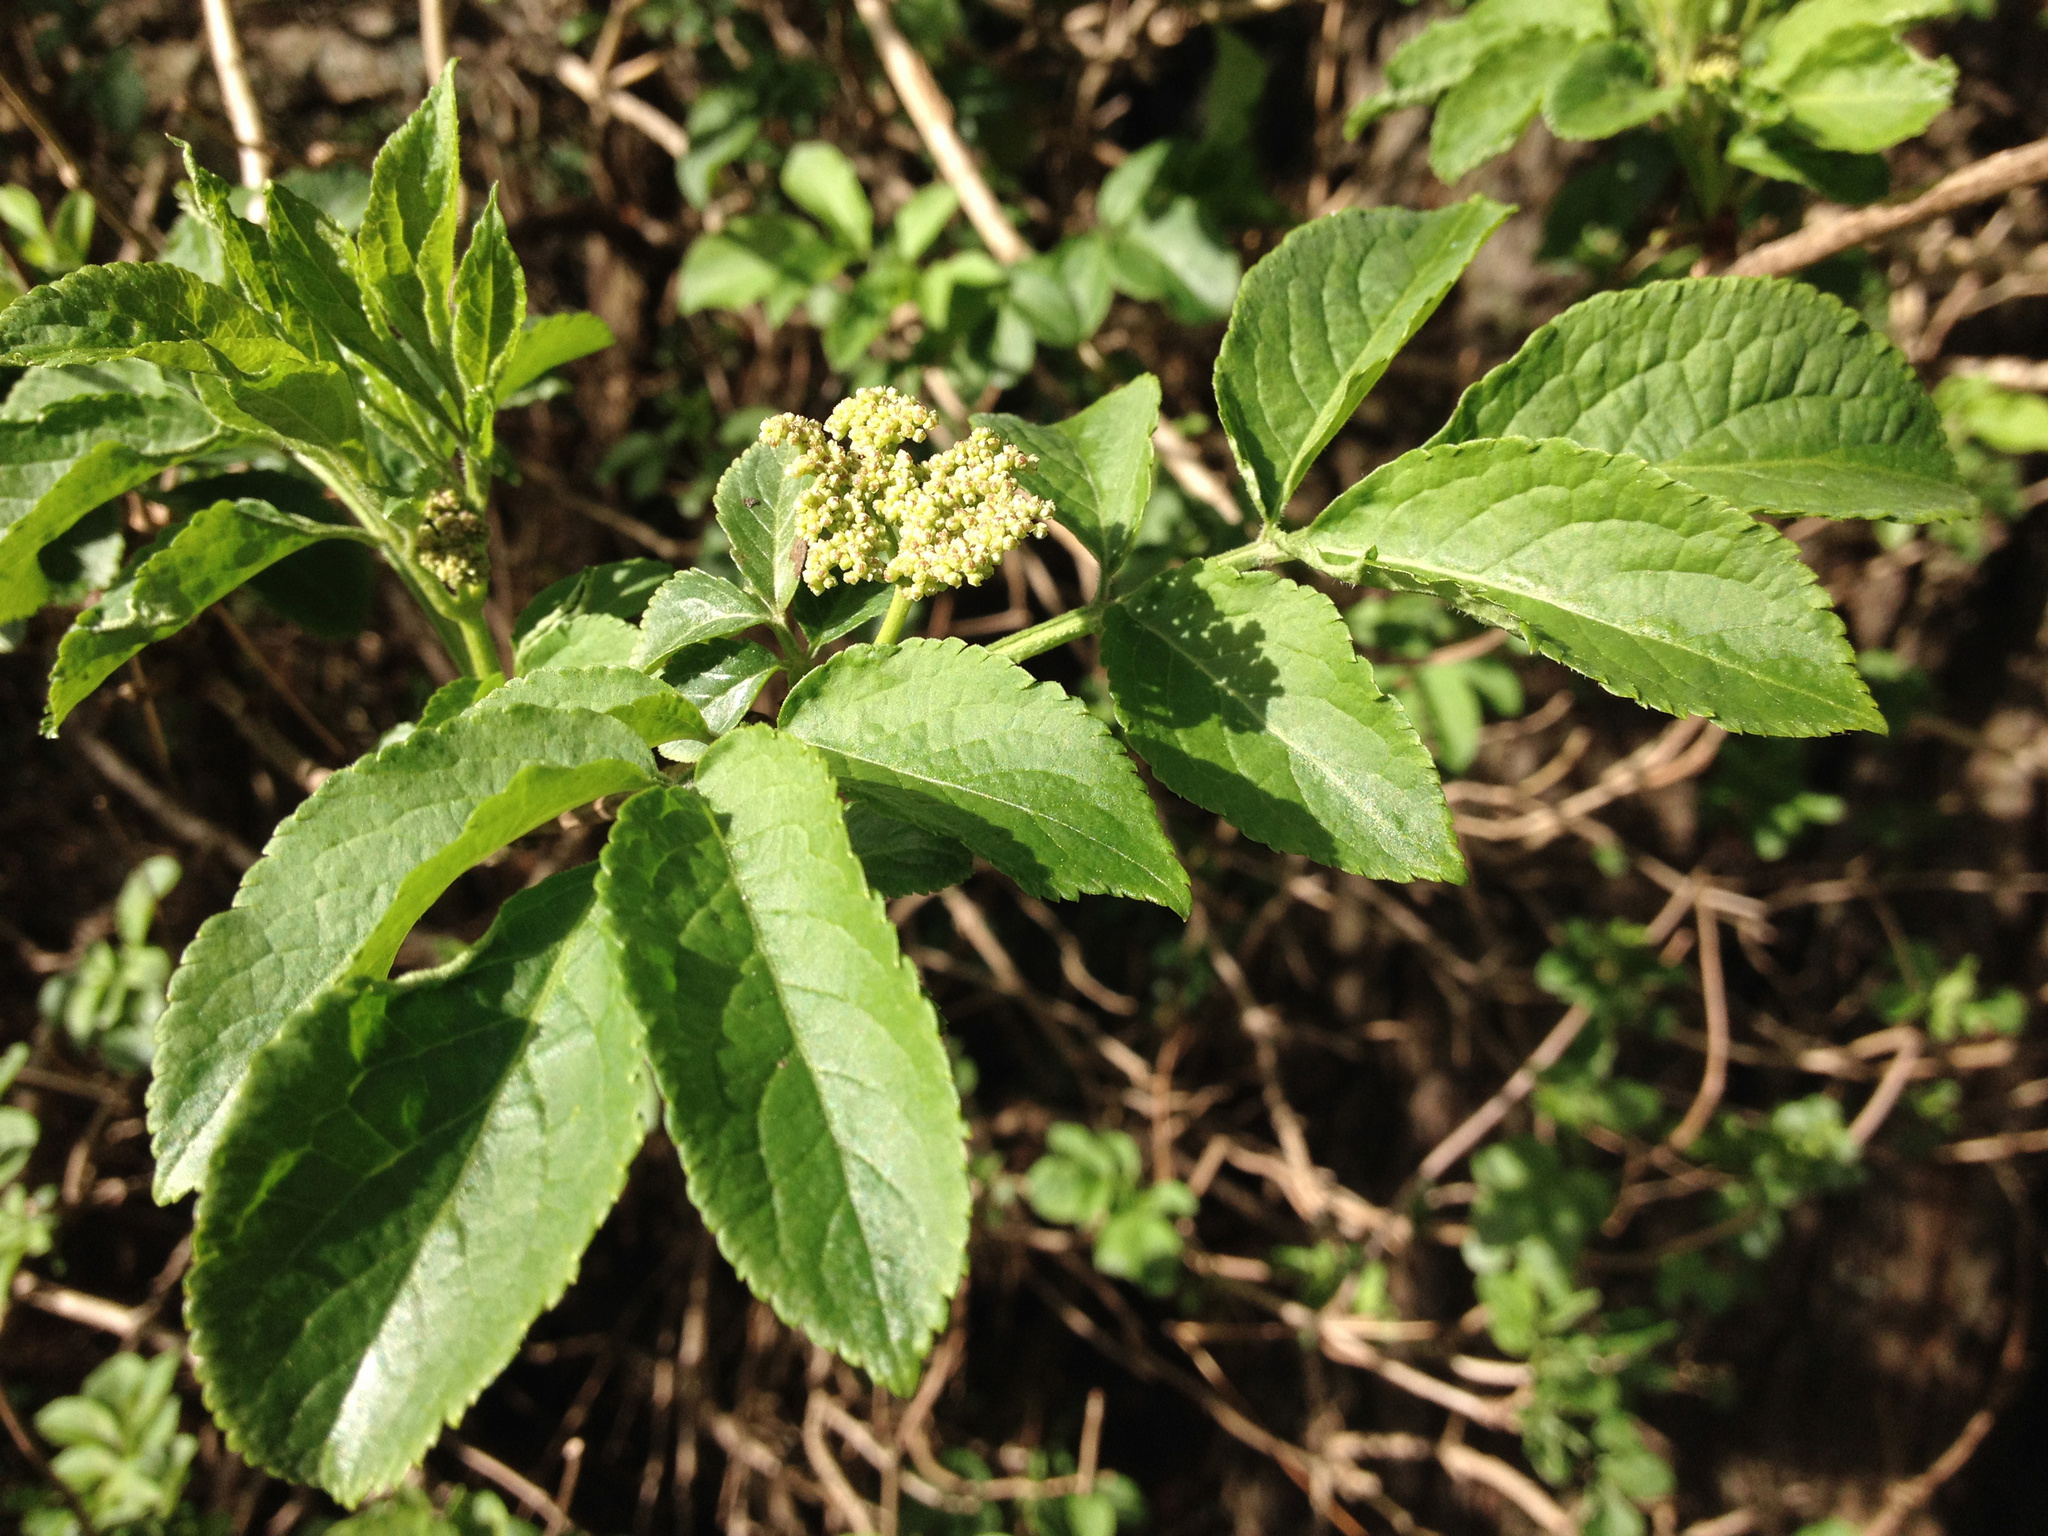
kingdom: Plantae
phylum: Tracheophyta
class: Magnoliopsida
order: Dipsacales
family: Viburnaceae
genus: Sambucus
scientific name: Sambucus nigra
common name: Elder
